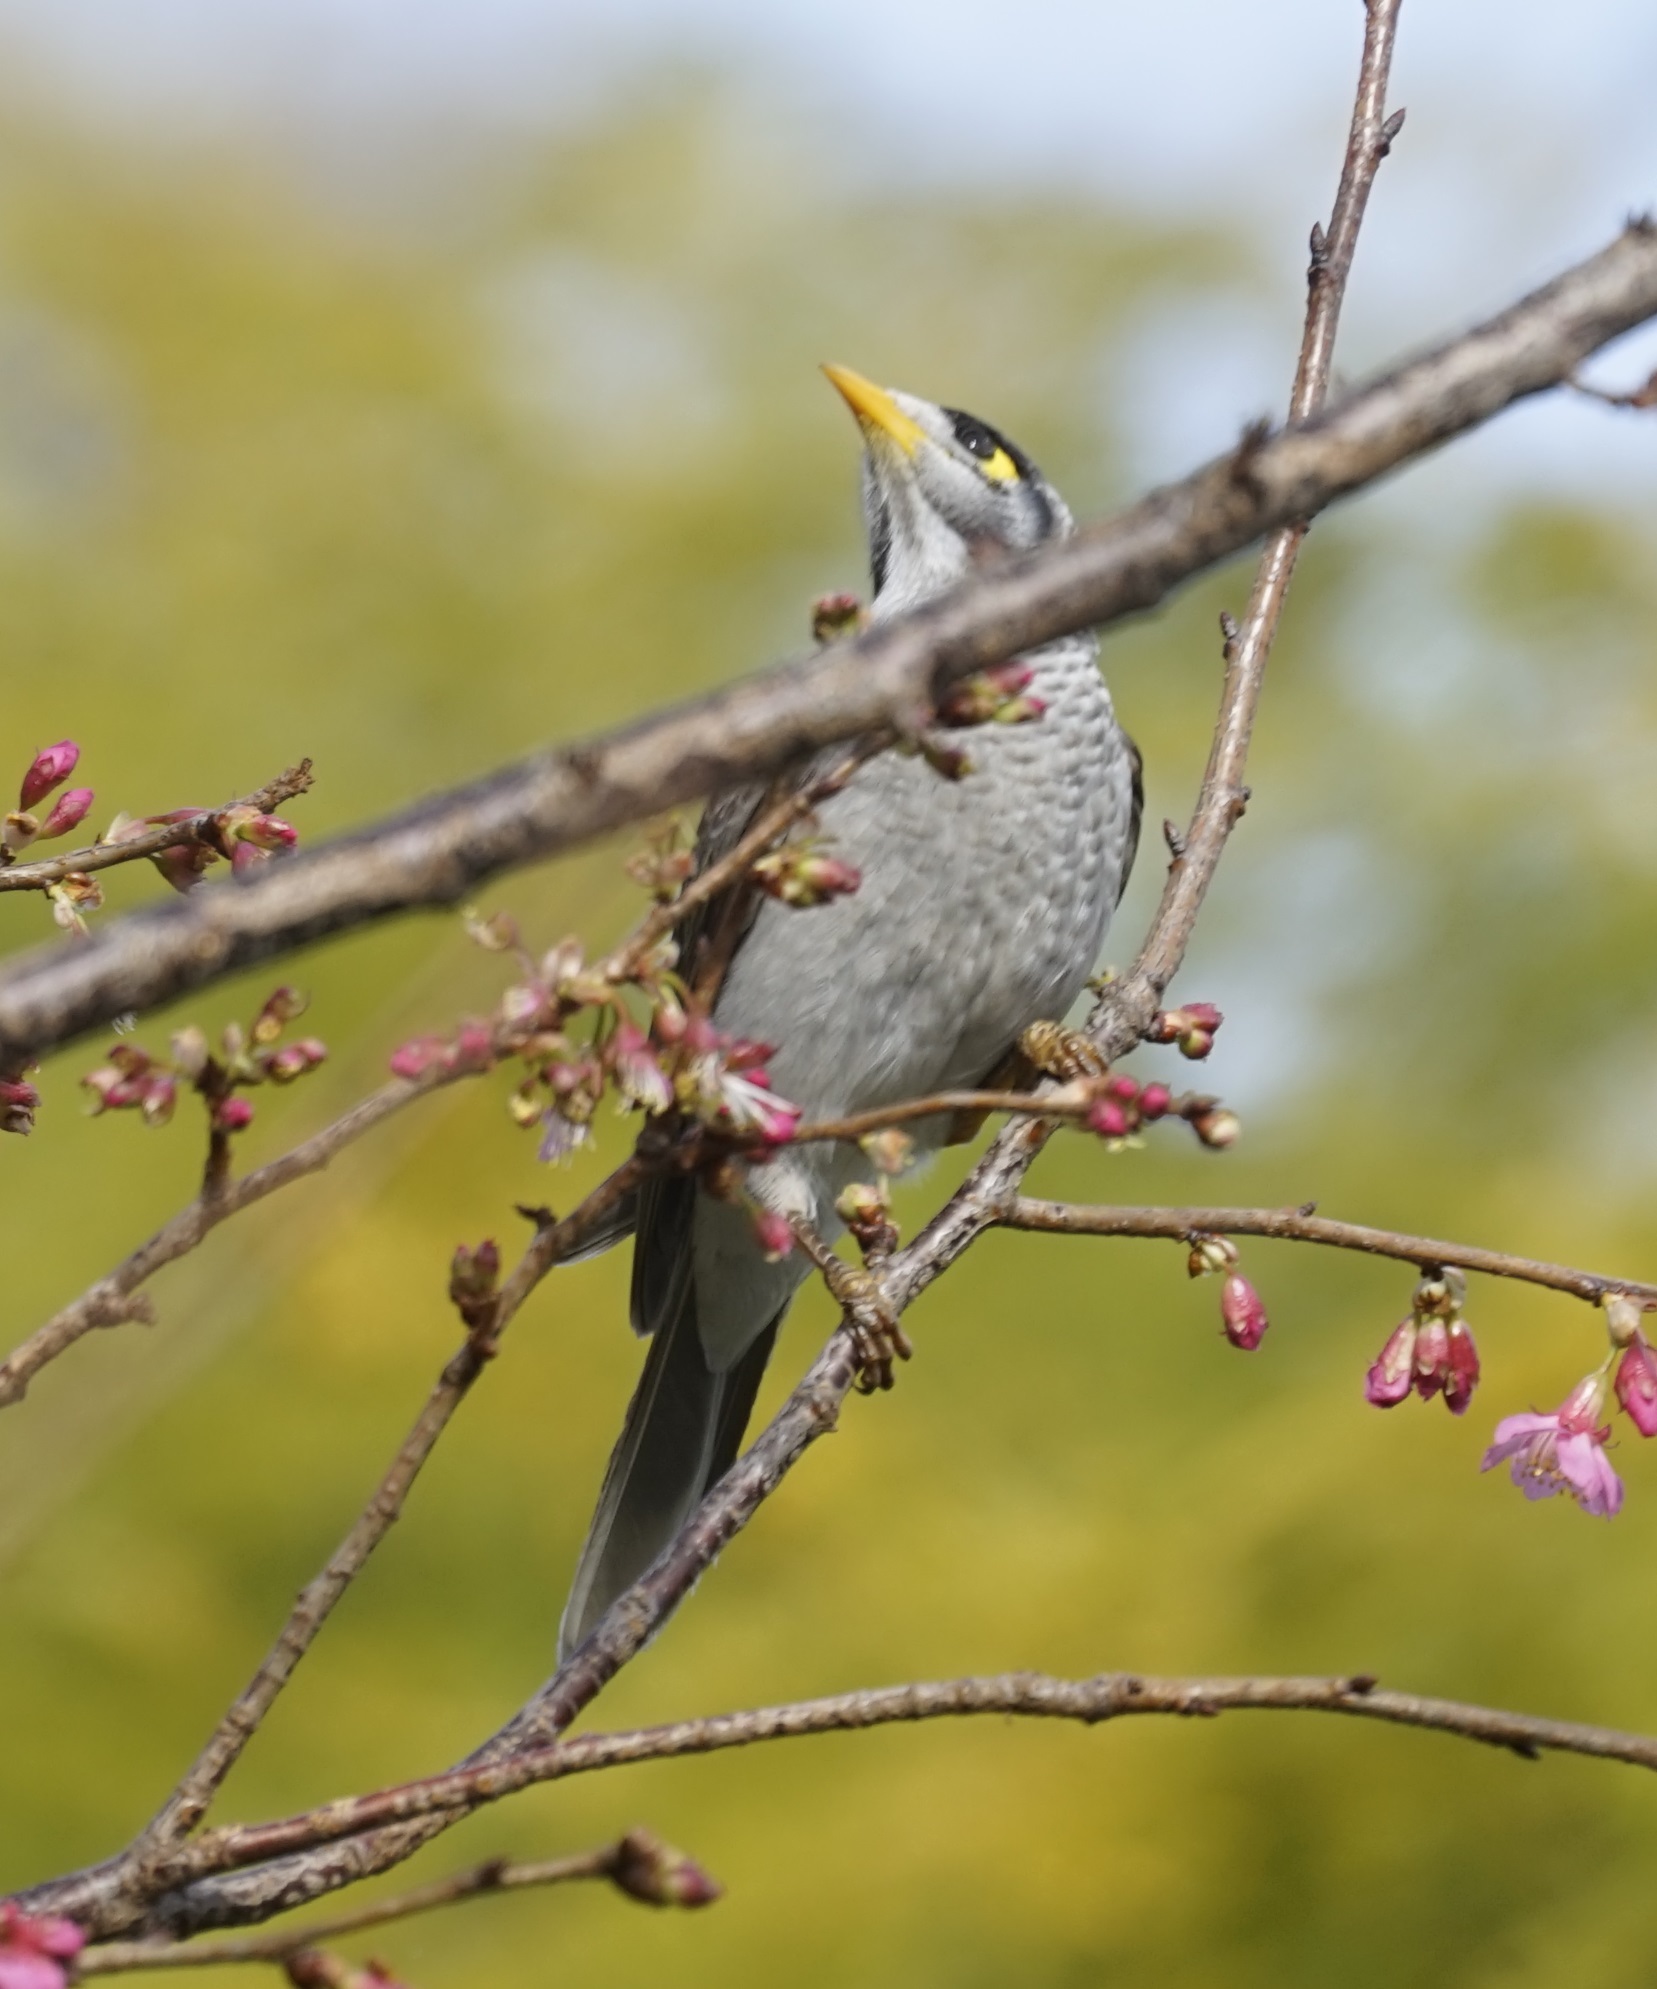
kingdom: Animalia
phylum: Chordata
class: Aves
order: Passeriformes
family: Meliphagidae
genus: Manorina
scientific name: Manorina melanocephala
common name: Noisy miner
